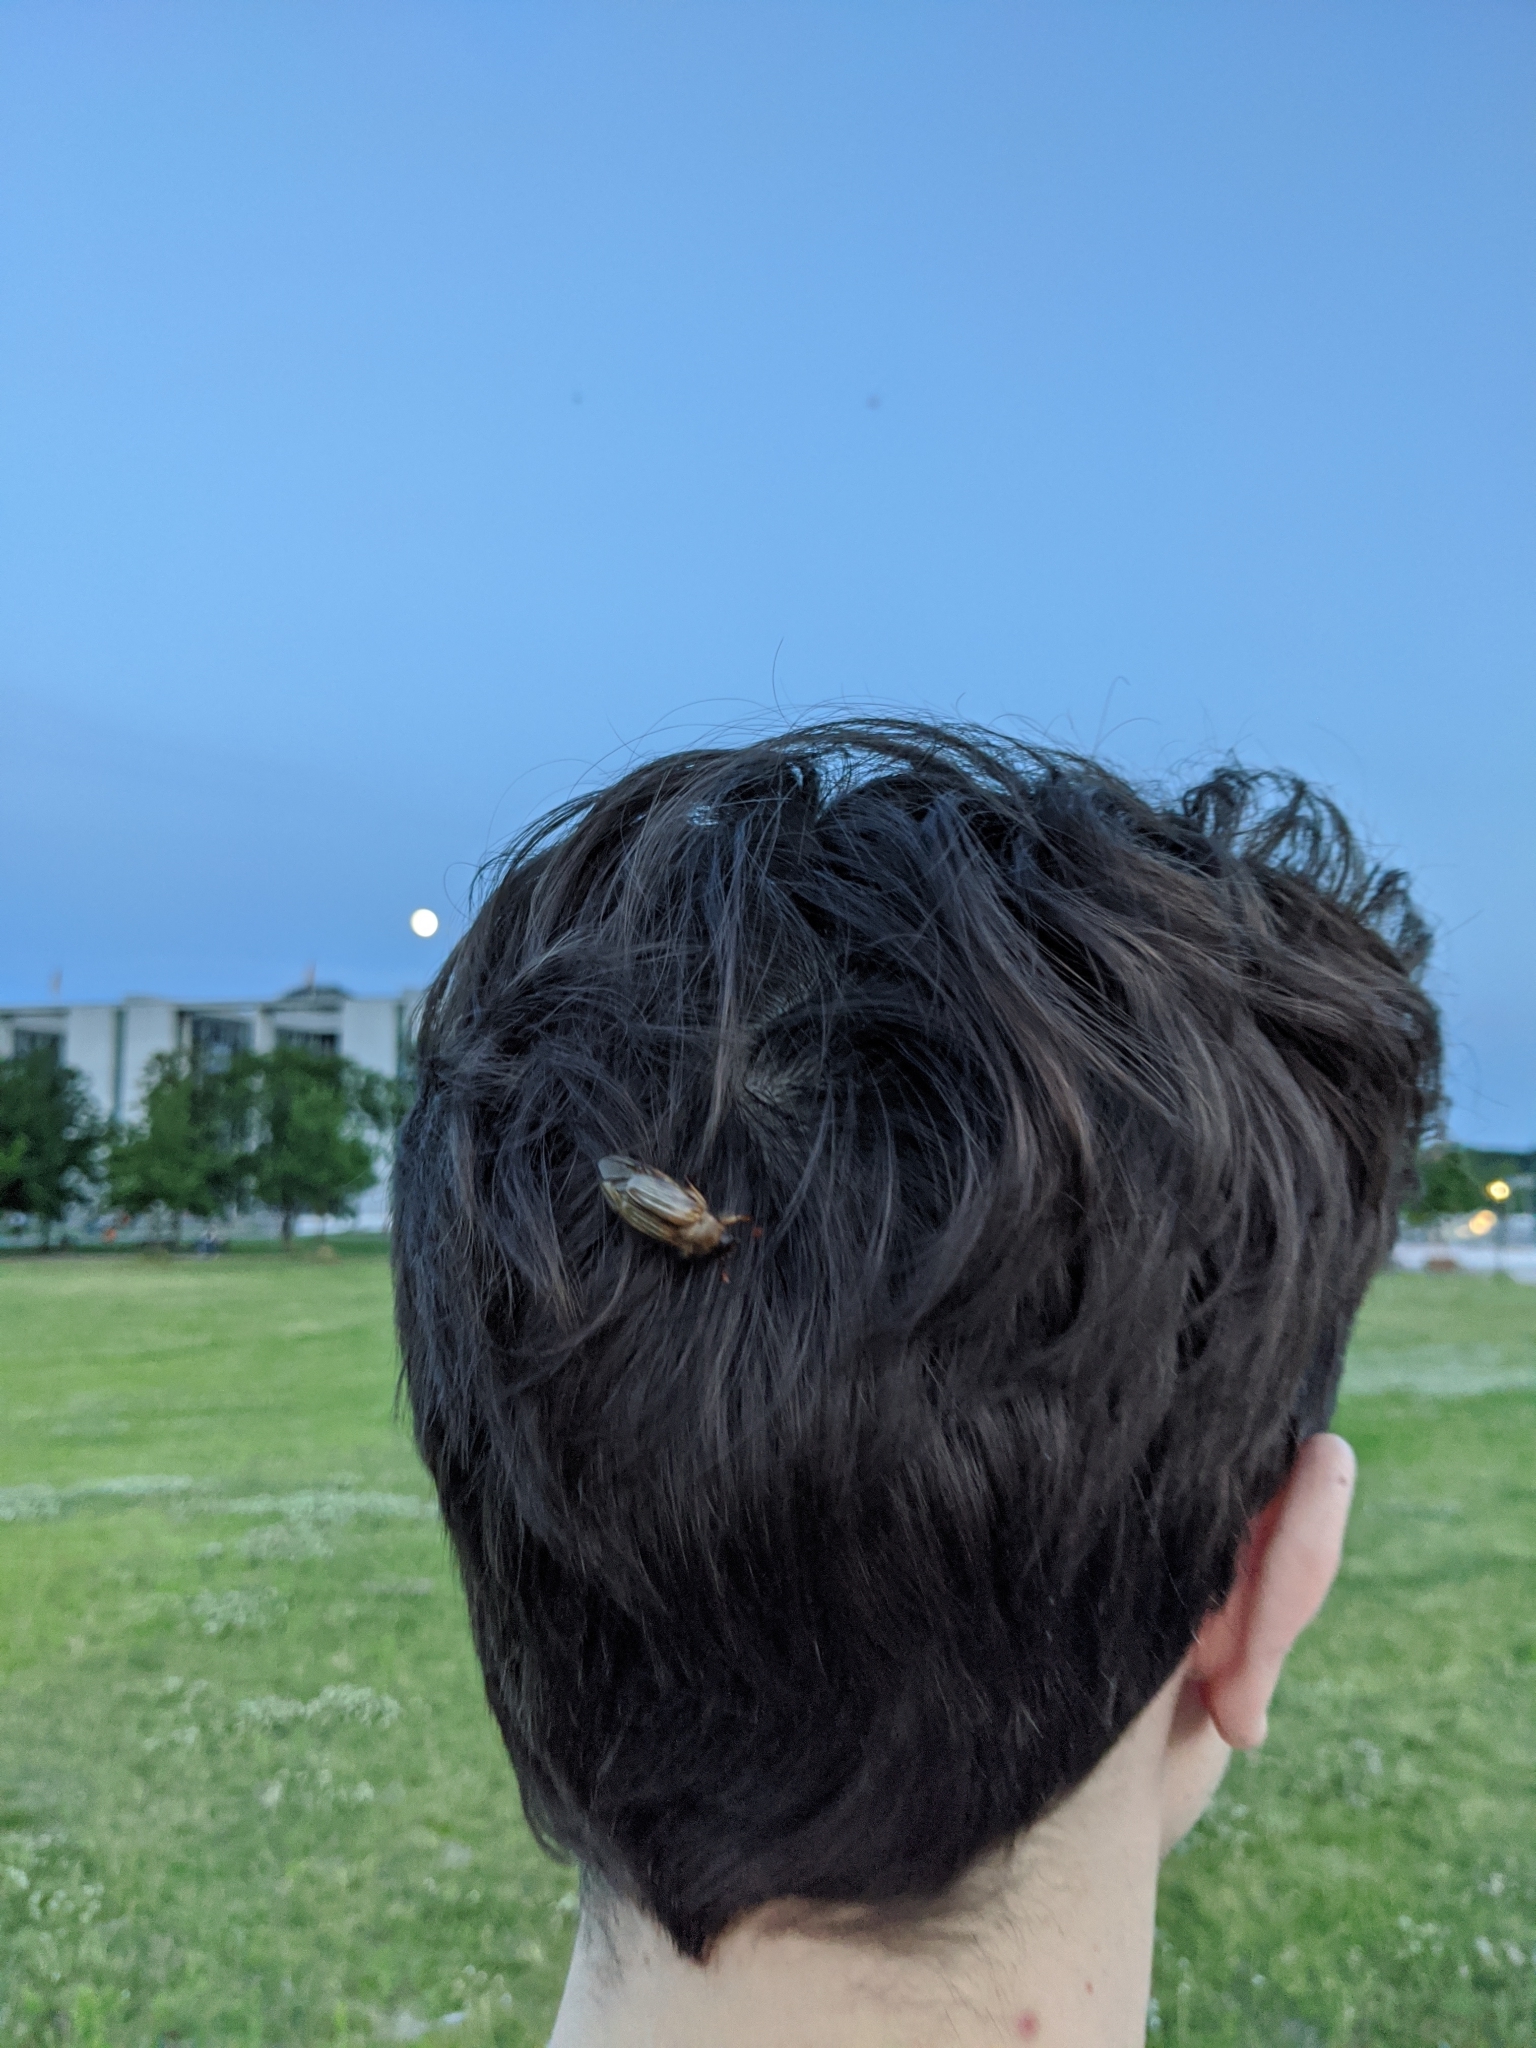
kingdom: Animalia
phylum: Arthropoda
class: Insecta
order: Coleoptera
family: Scarabaeidae
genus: Amphimallon
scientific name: Amphimallon solstitiale
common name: Summer chafer
